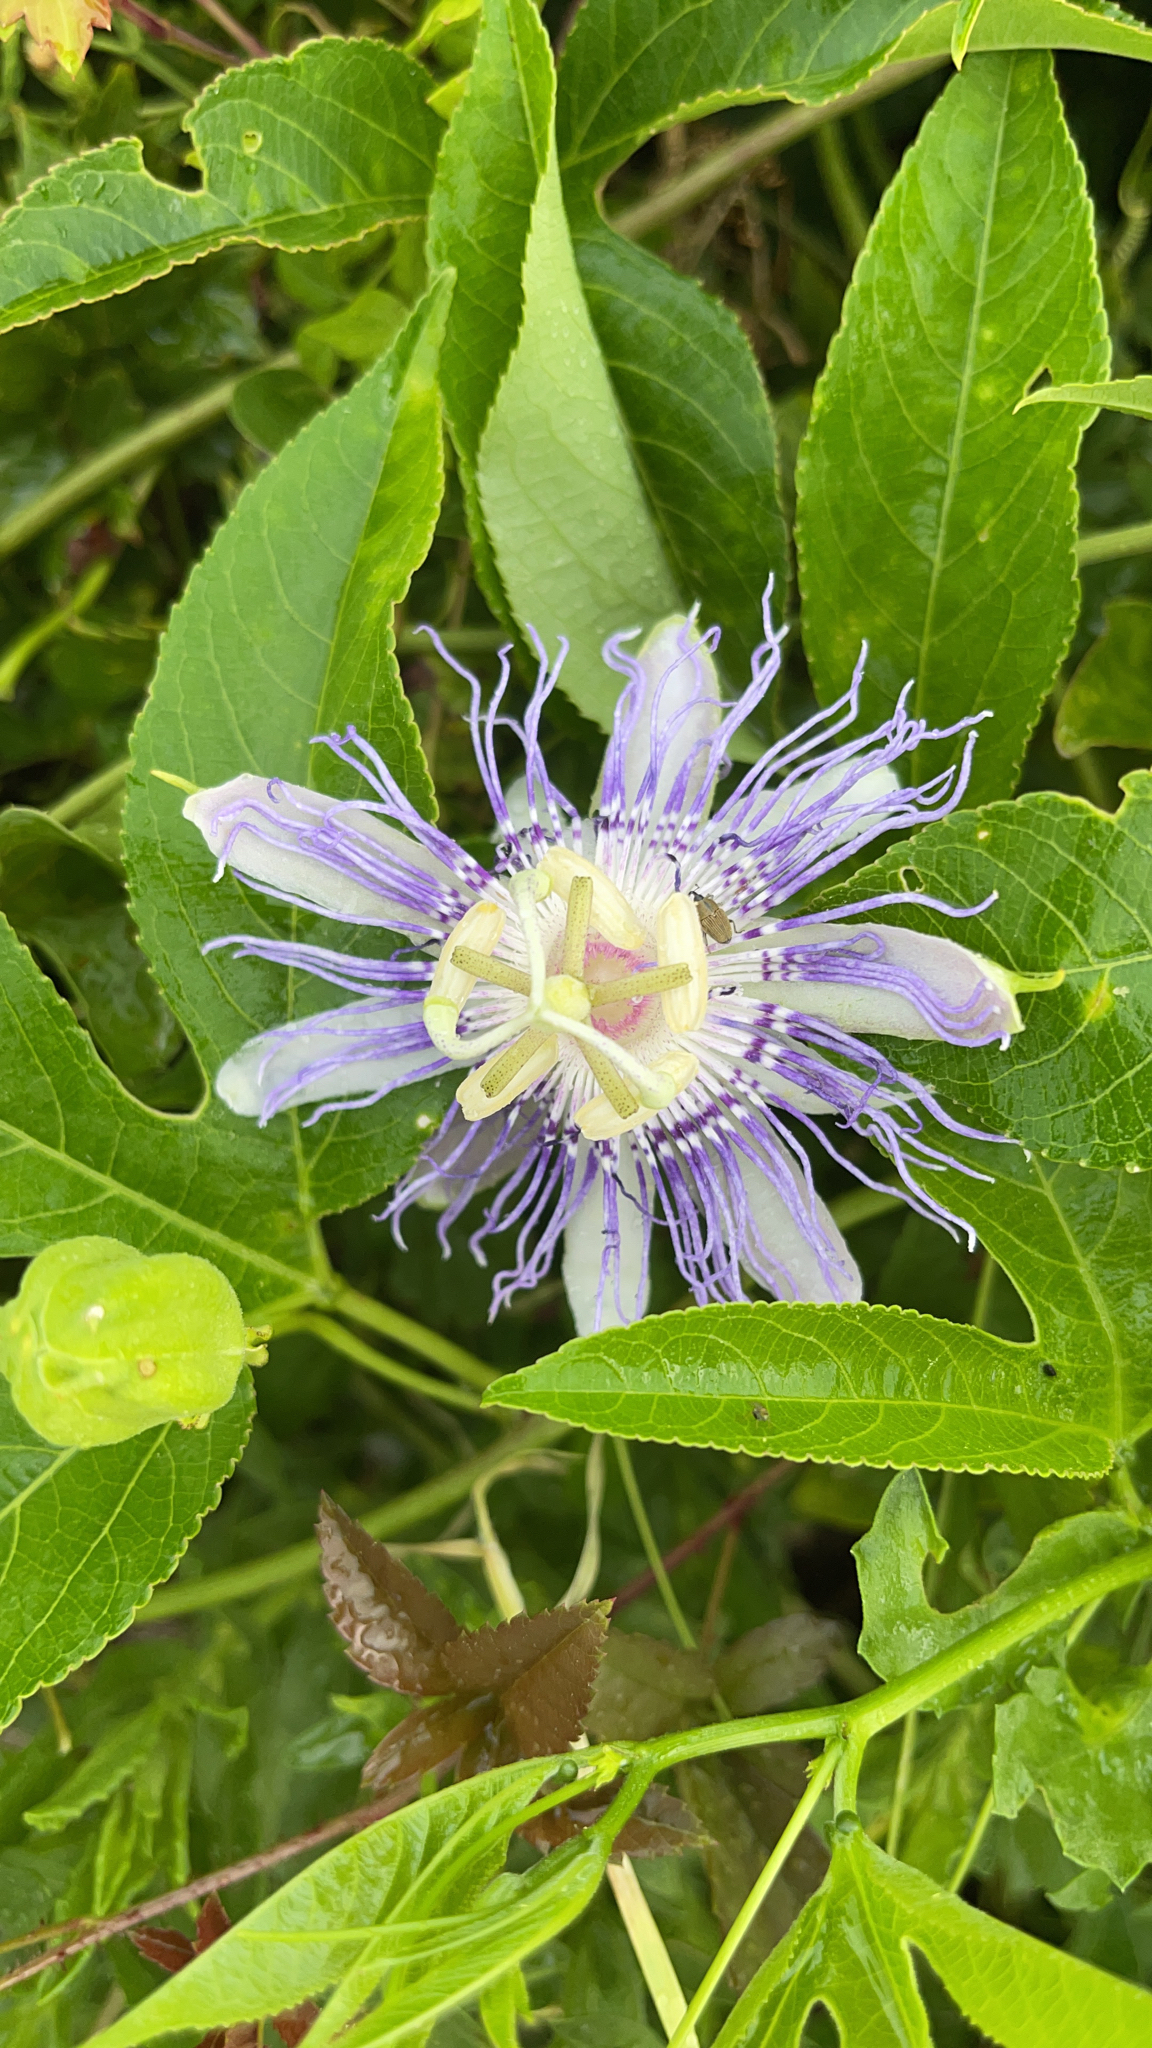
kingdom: Plantae
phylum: Tracheophyta
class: Magnoliopsida
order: Malpighiales
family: Passifloraceae
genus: Passiflora
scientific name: Passiflora incarnata
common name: Apricot-vine
